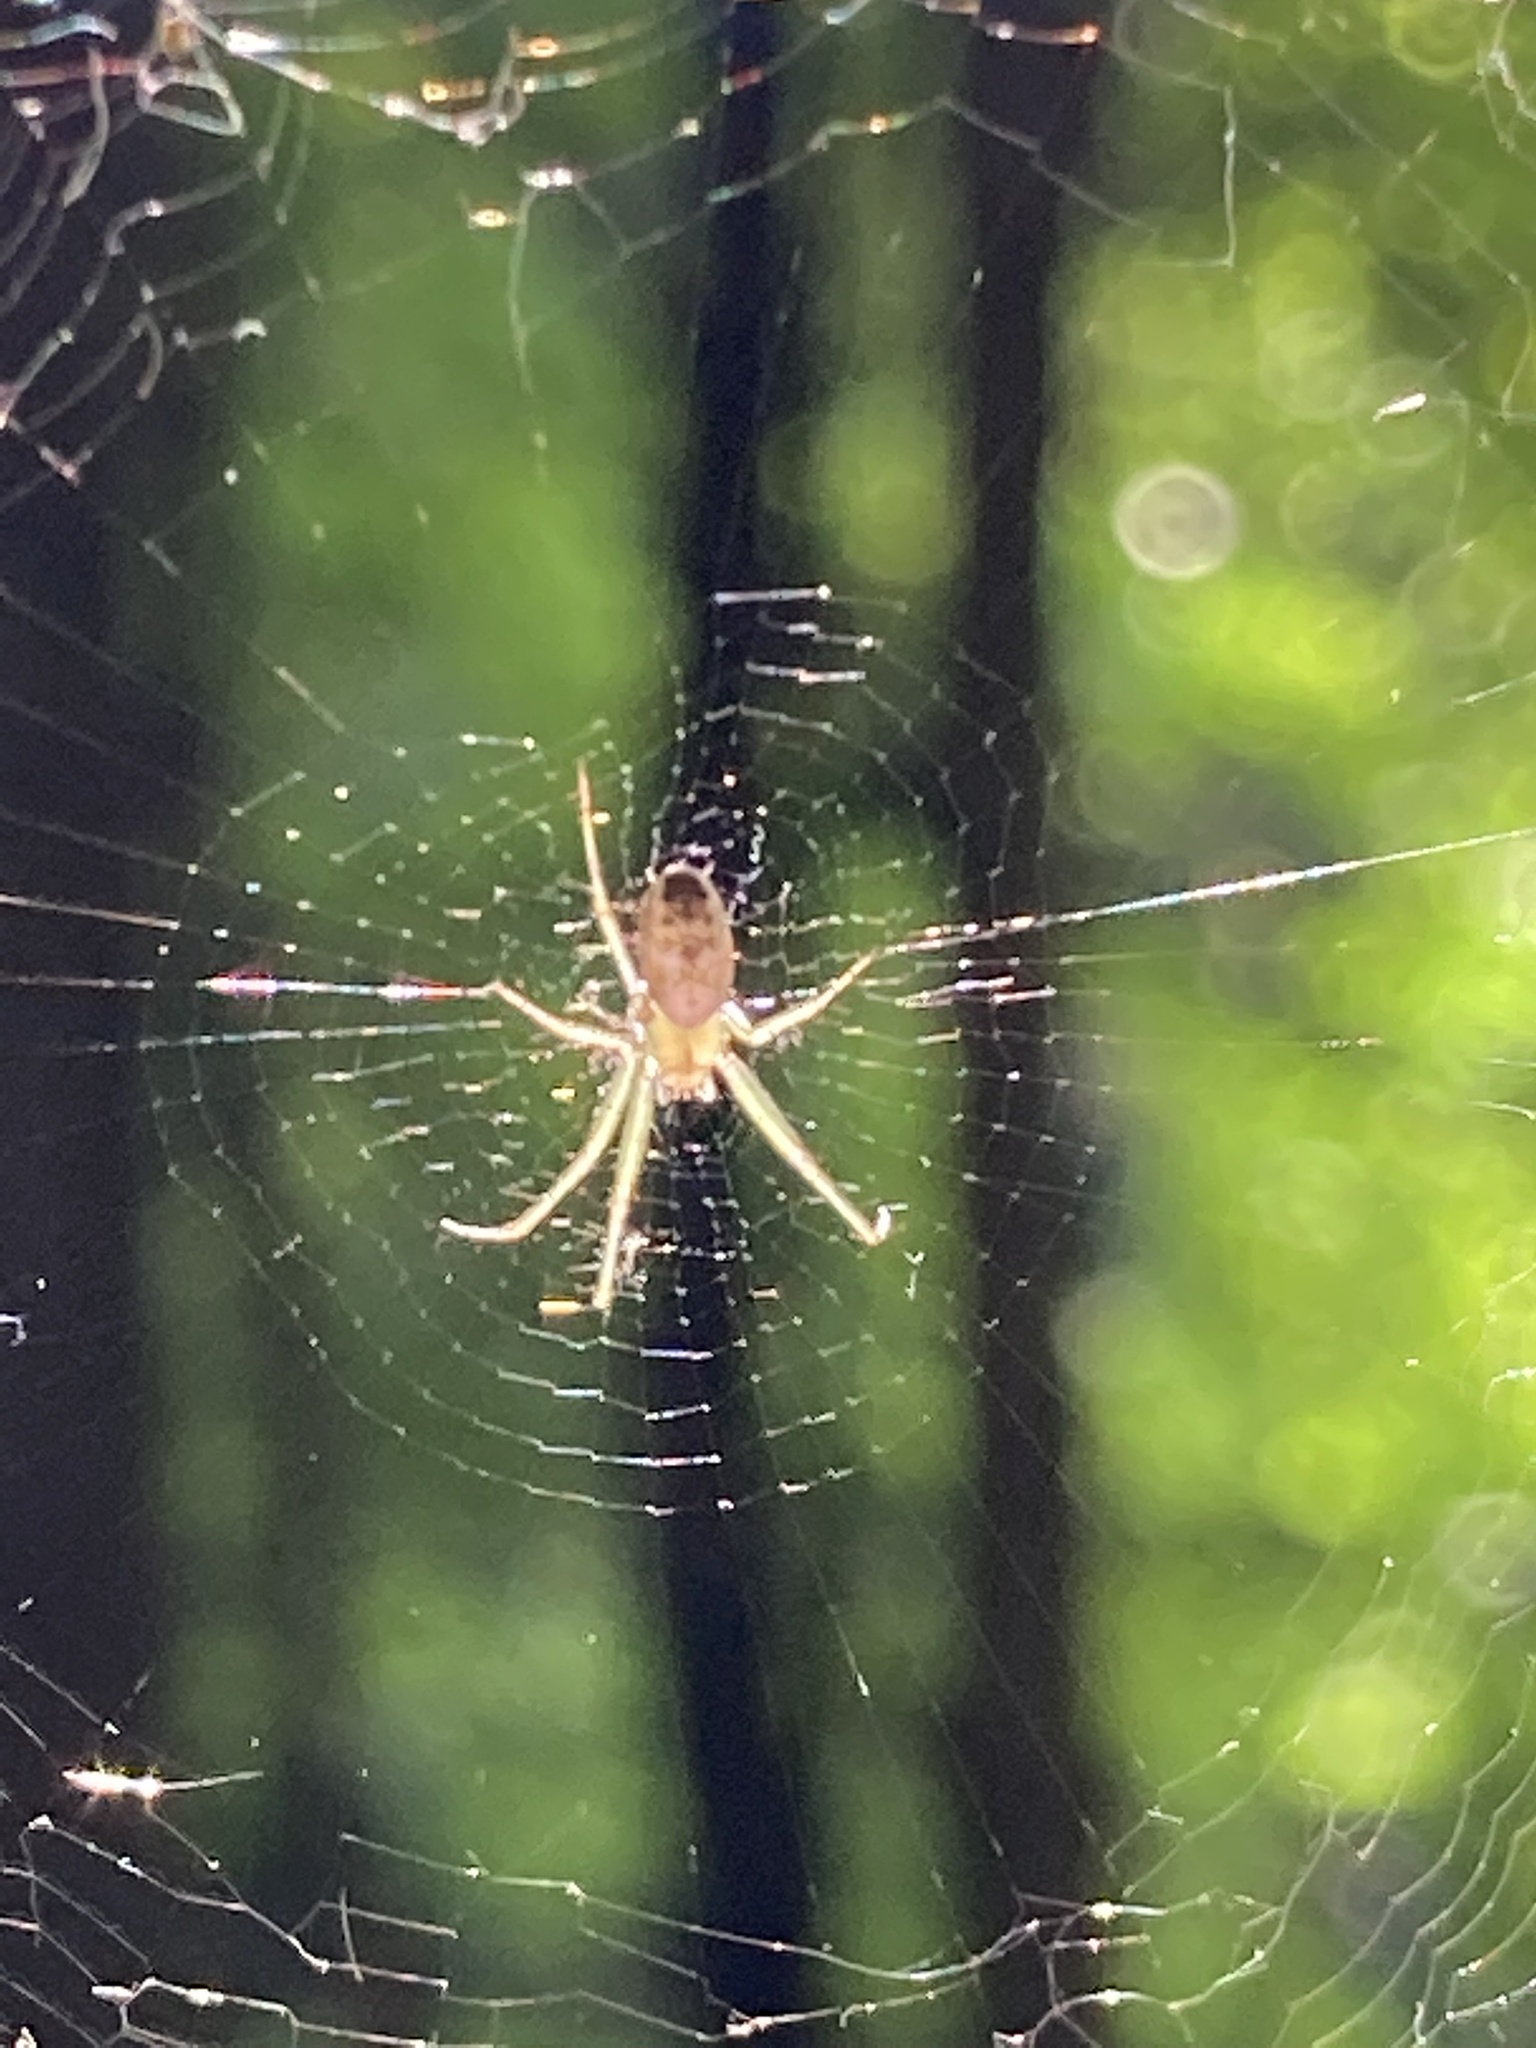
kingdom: Animalia
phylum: Arthropoda
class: Arachnida
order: Araneae
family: Araneidae
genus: Mangora
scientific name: Mangora maculata
